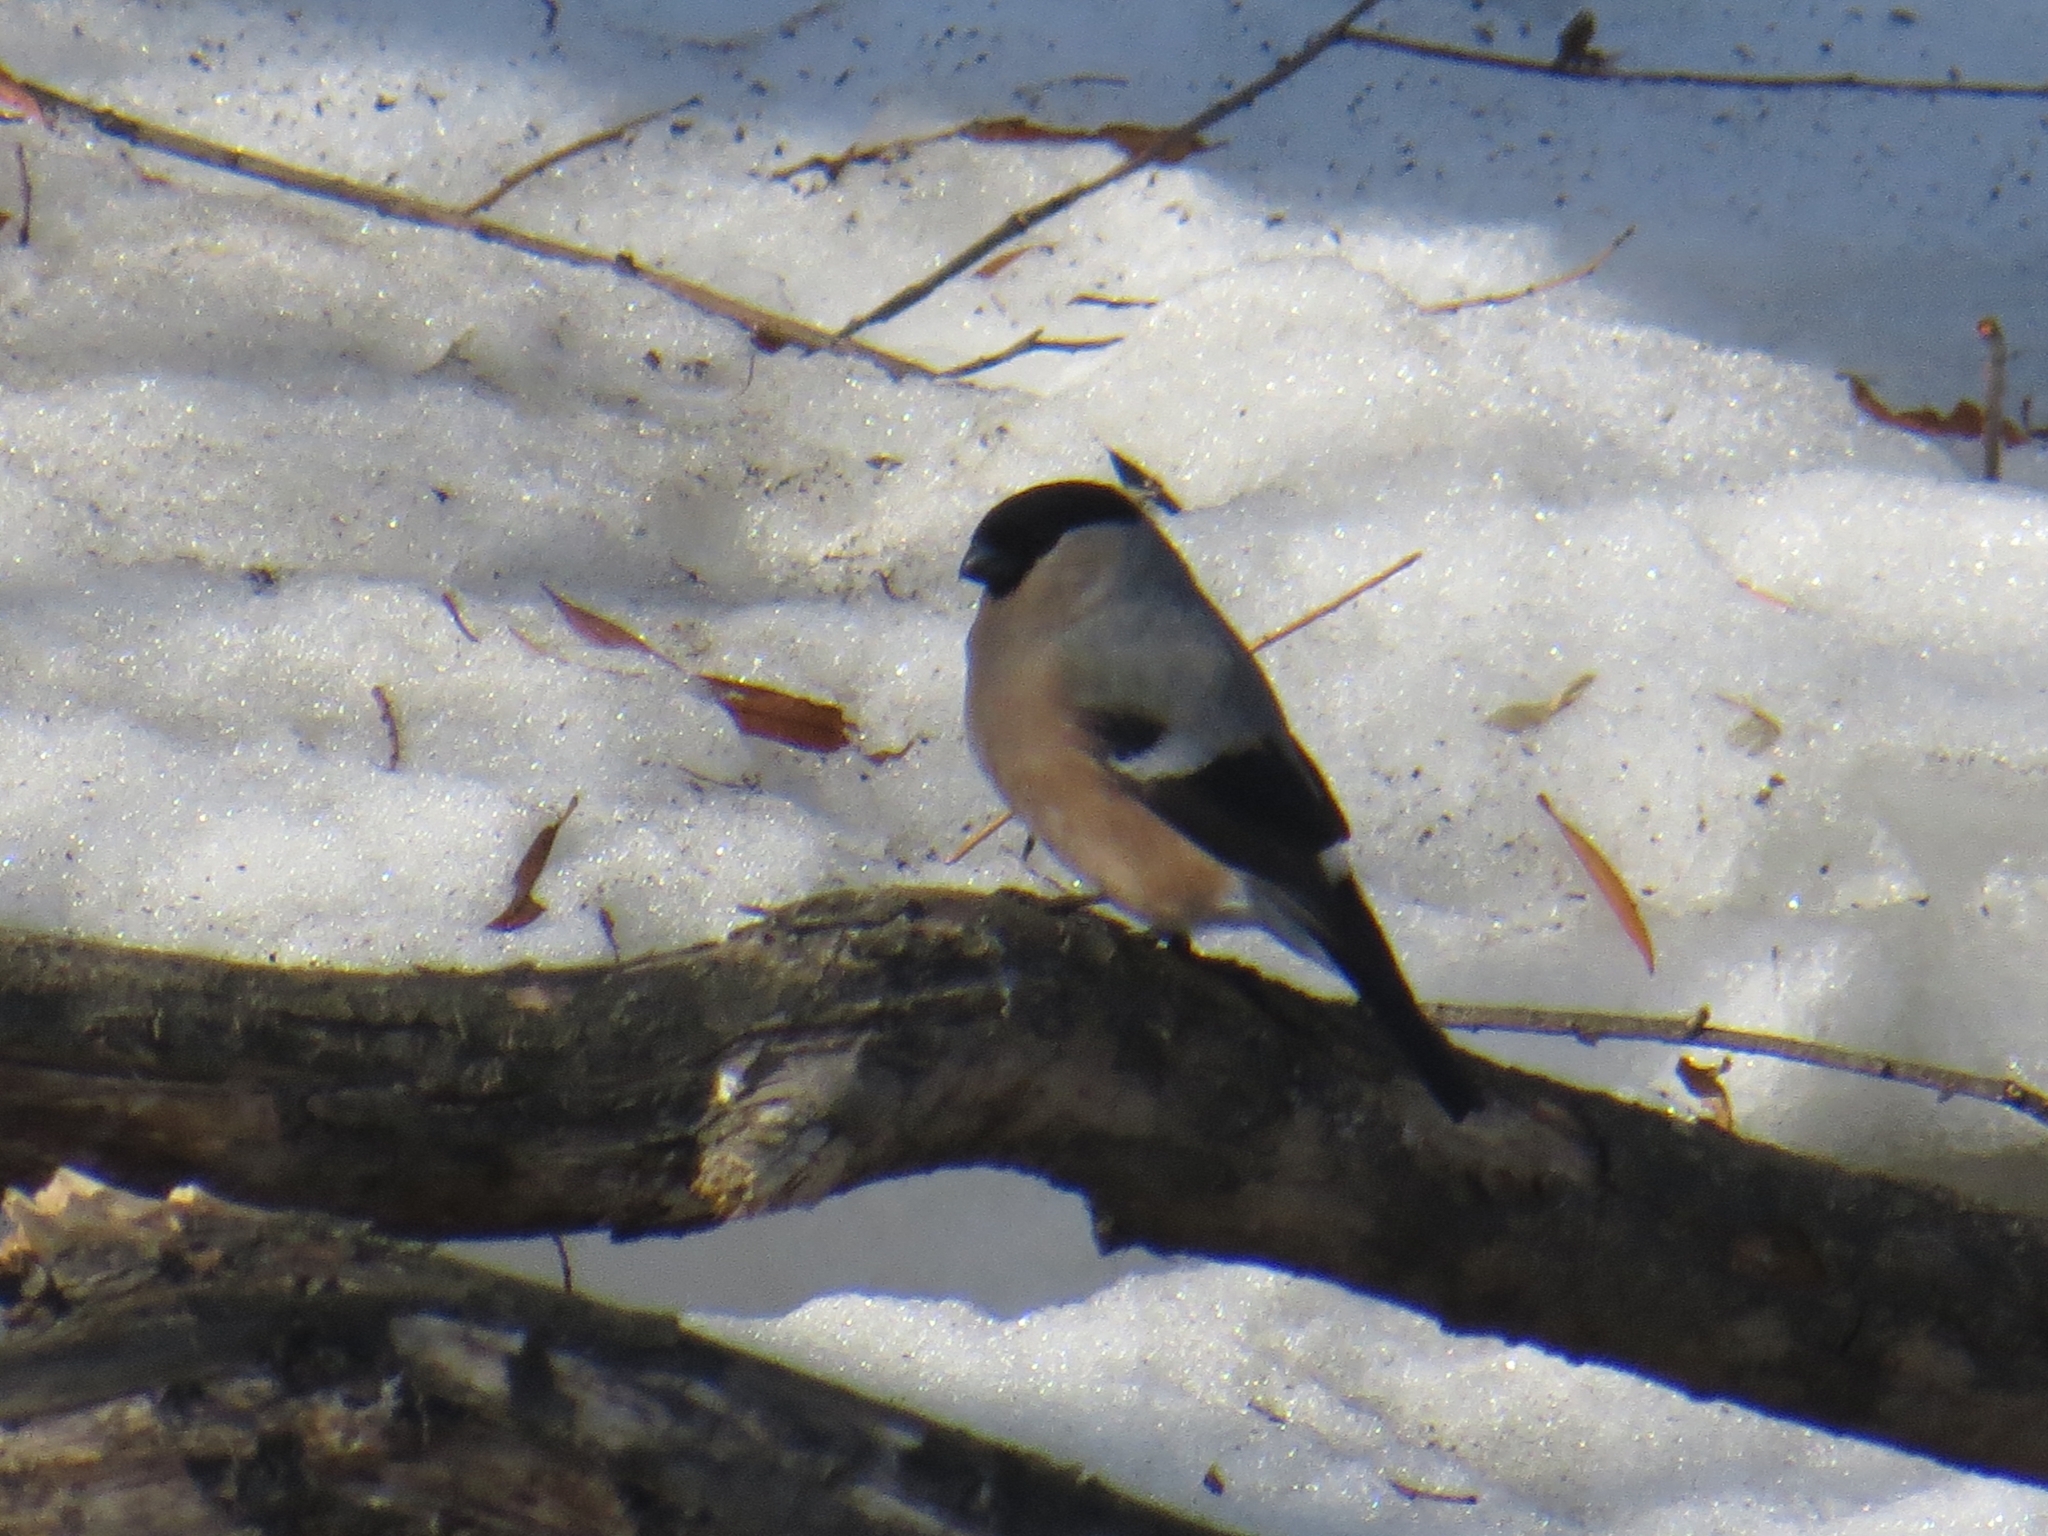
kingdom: Animalia
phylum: Chordata
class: Aves
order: Passeriformes
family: Fringillidae
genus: Pyrrhula
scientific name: Pyrrhula pyrrhula
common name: Eurasian bullfinch
